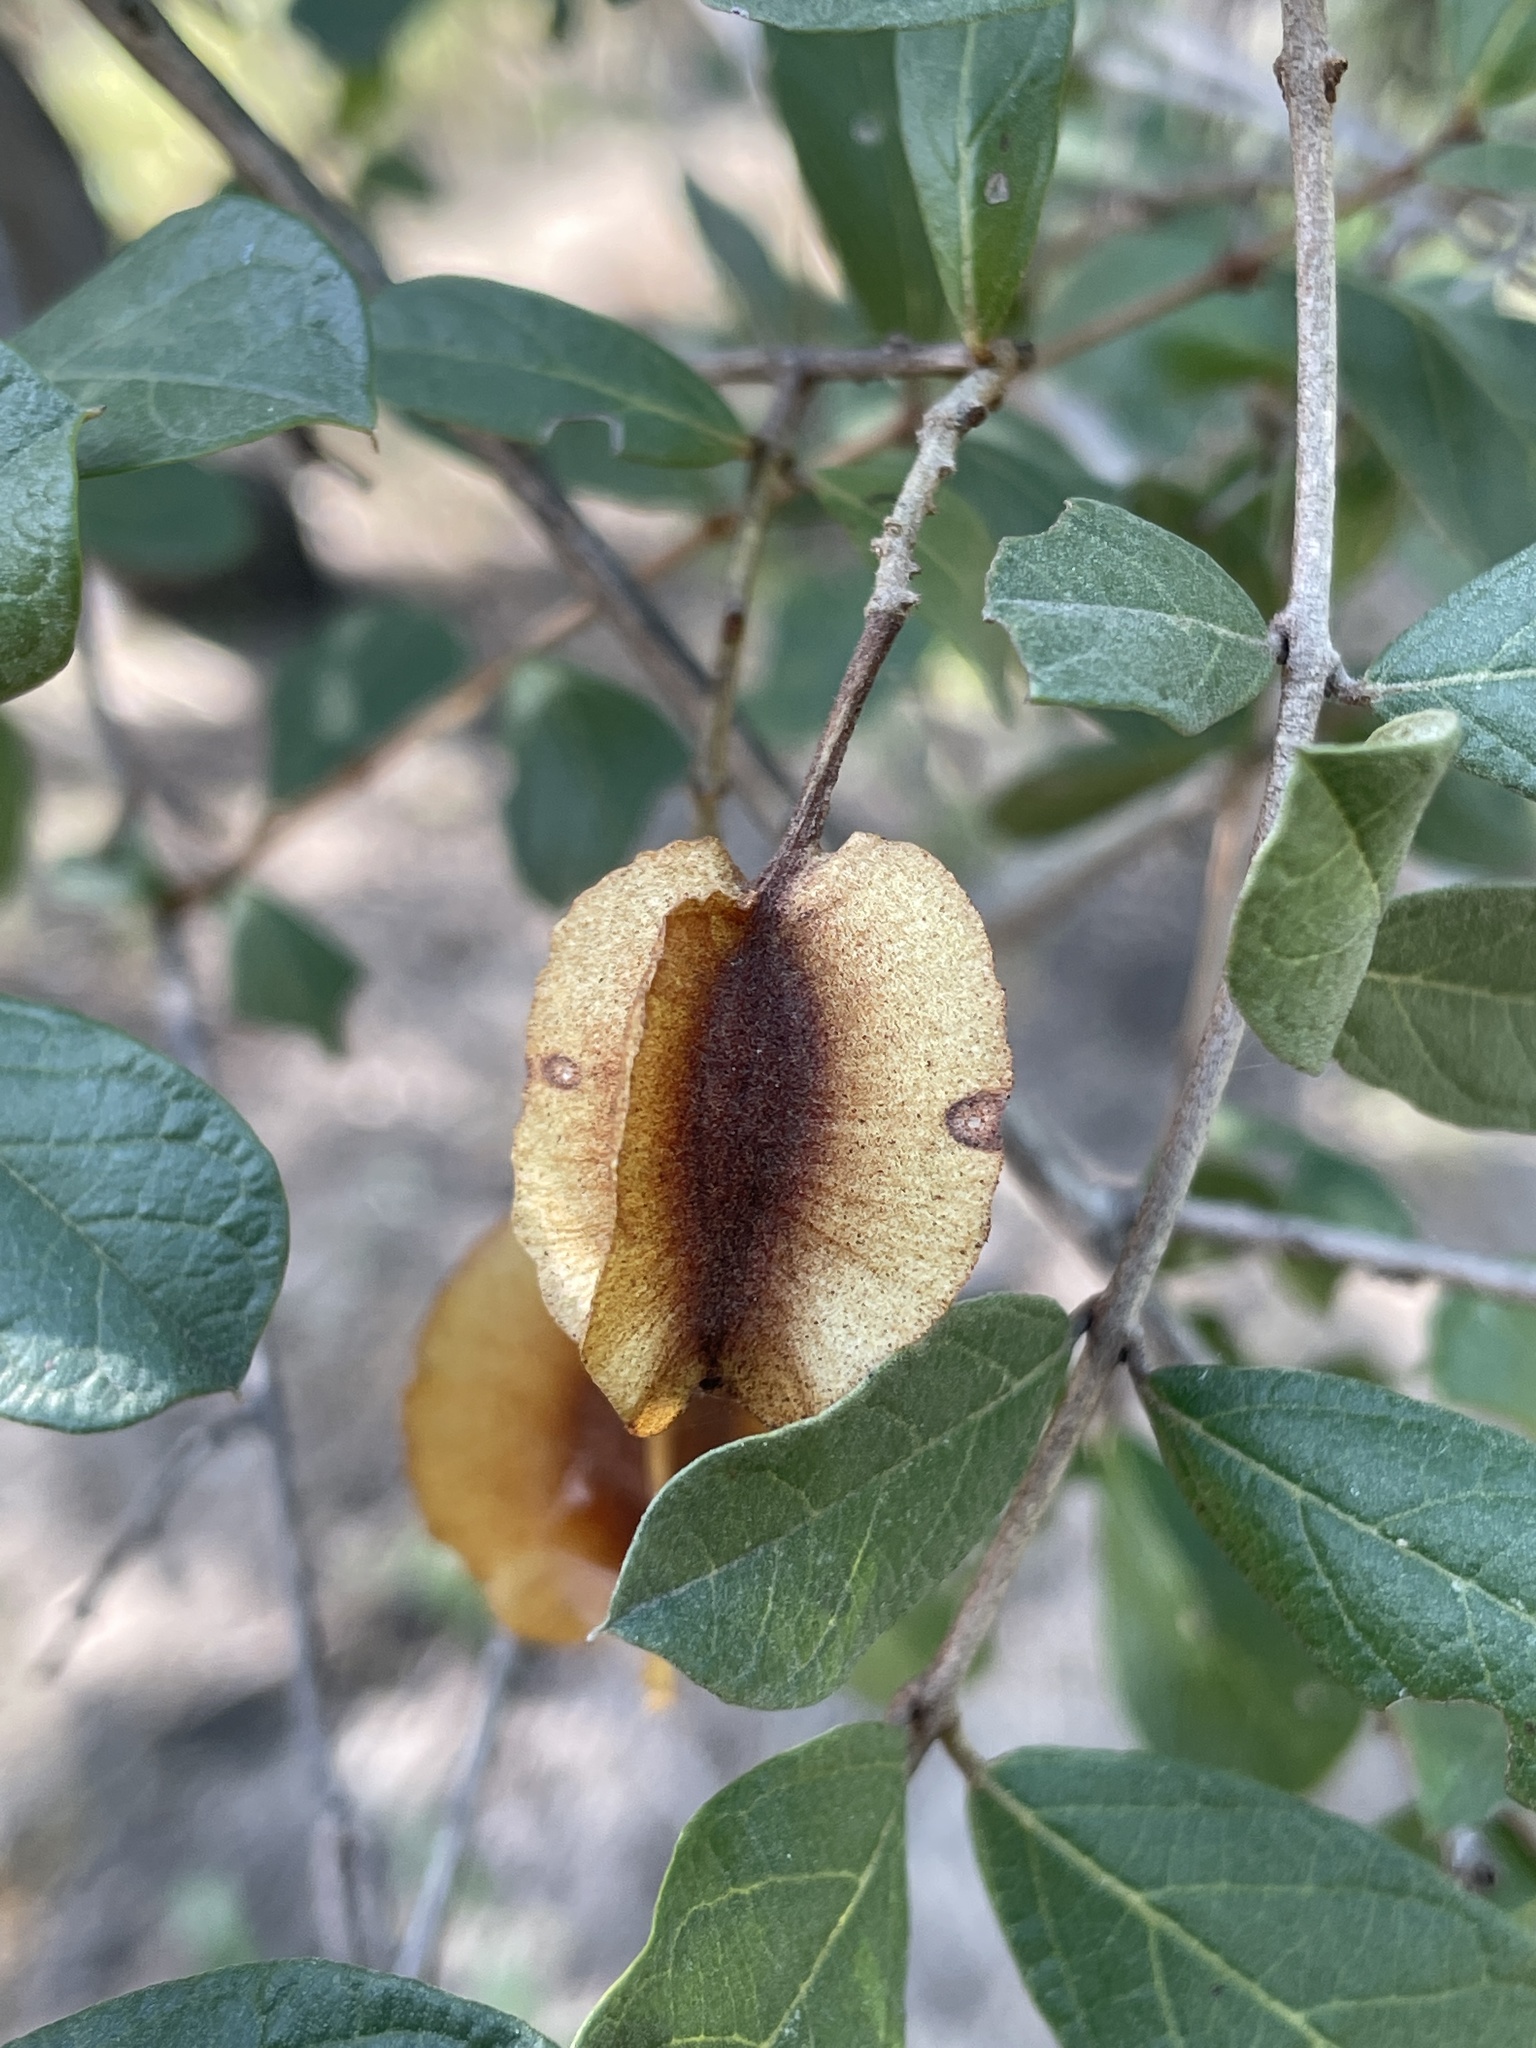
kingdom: Plantae
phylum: Tracheophyta
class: Magnoliopsida
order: Myrtales
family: Combretaceae
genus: Combretum
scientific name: Combretum hereroense
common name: Russet bushwillow
